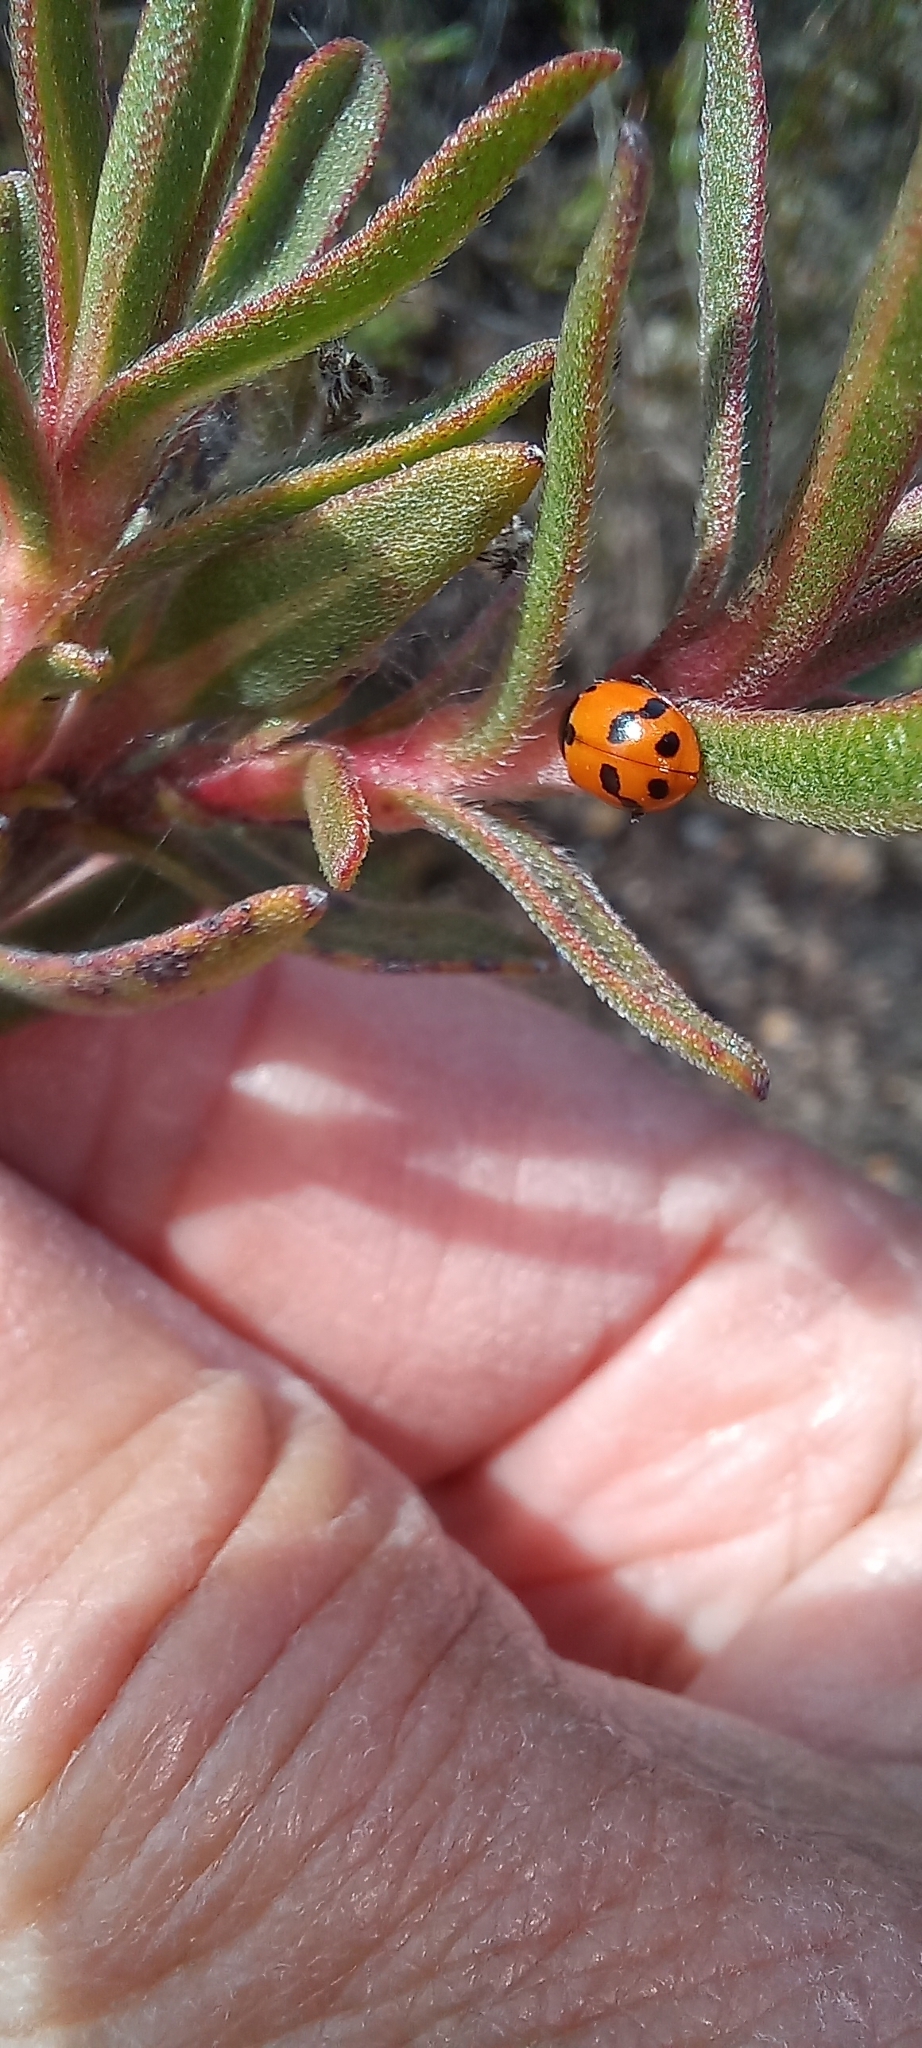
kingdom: Animalia
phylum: Arthropoda
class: Insecta
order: Coleoptera
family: Coccinellidae
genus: Hippodamia
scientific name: Hippodamia variegata
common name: Ladybird beetle
